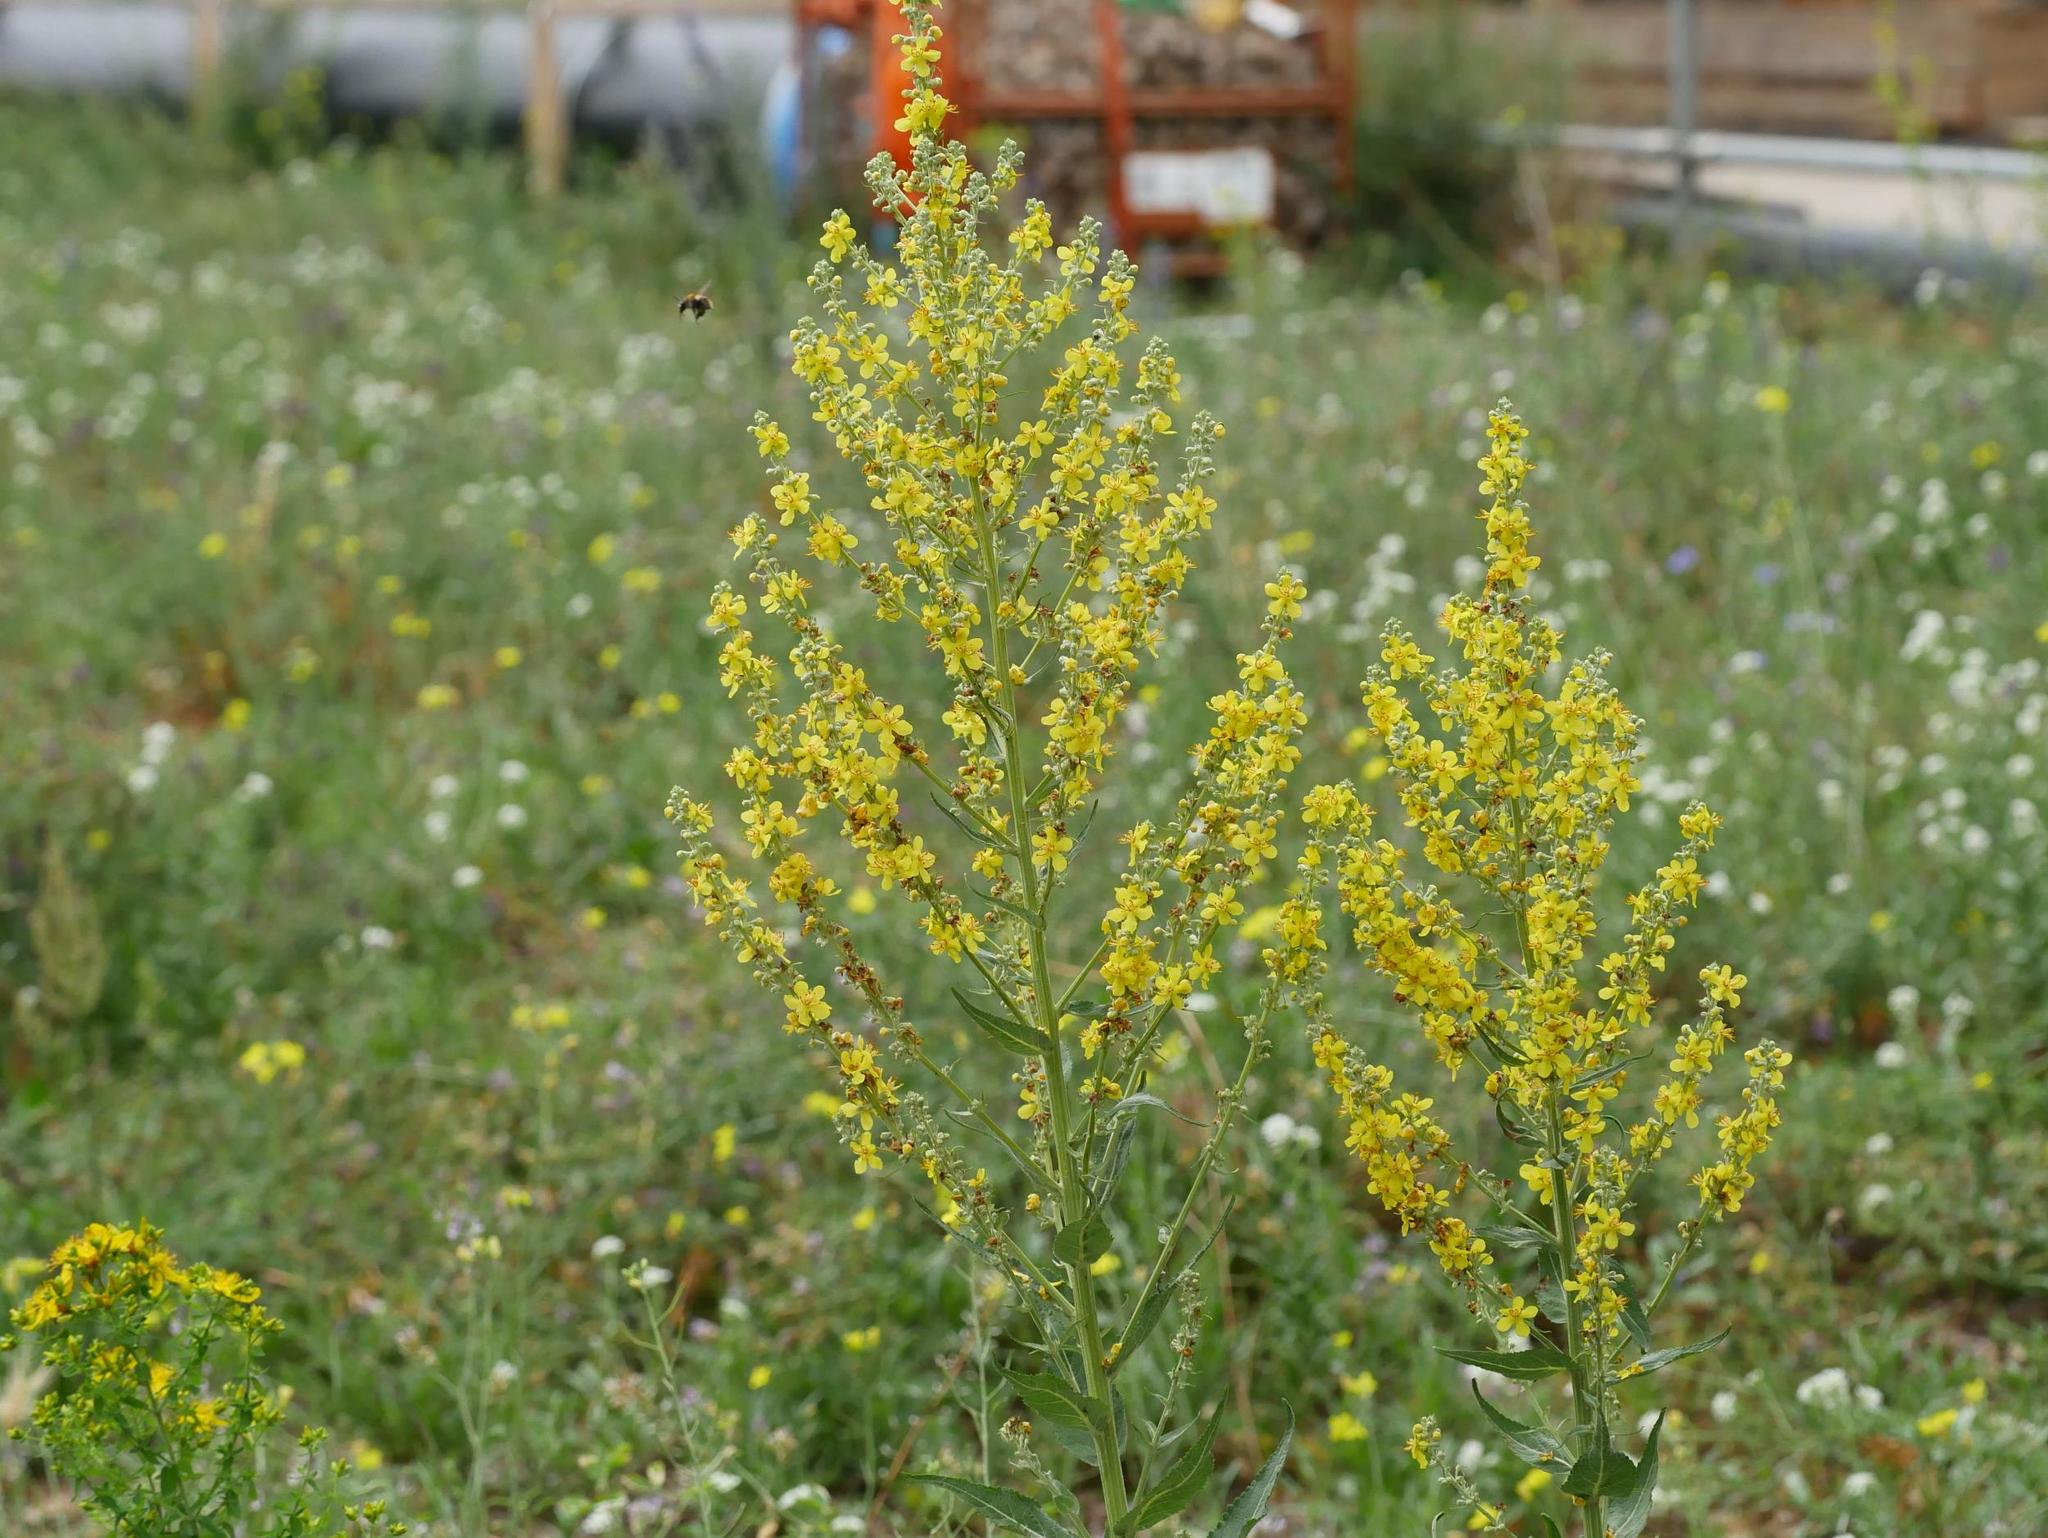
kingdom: Plantae
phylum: Tracheophyta
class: Magnoliopsida
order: Lamiales
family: Scrophulariaceae
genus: Verbascum
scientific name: Verbascum lychnitis
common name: White mullein
